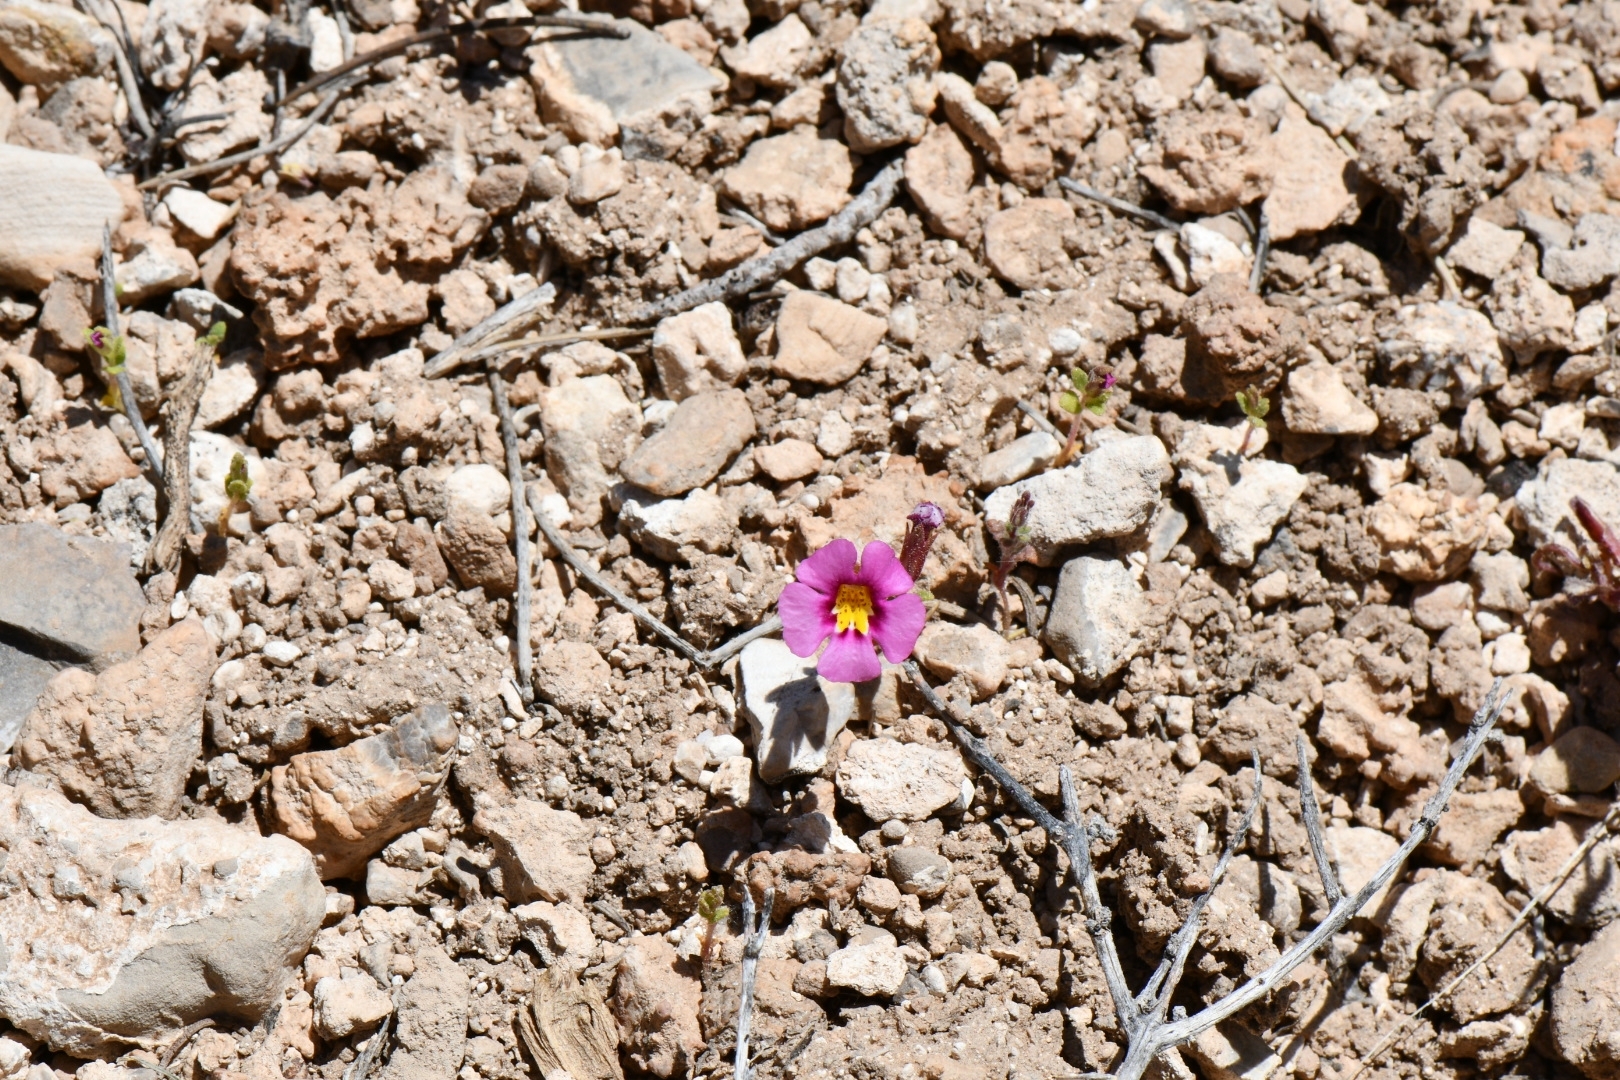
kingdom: Plantae
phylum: Tracheophyta
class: Magnoliopsida
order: Lamiales
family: Phrymaceae
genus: Diplacus
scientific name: Diplacus parryi
